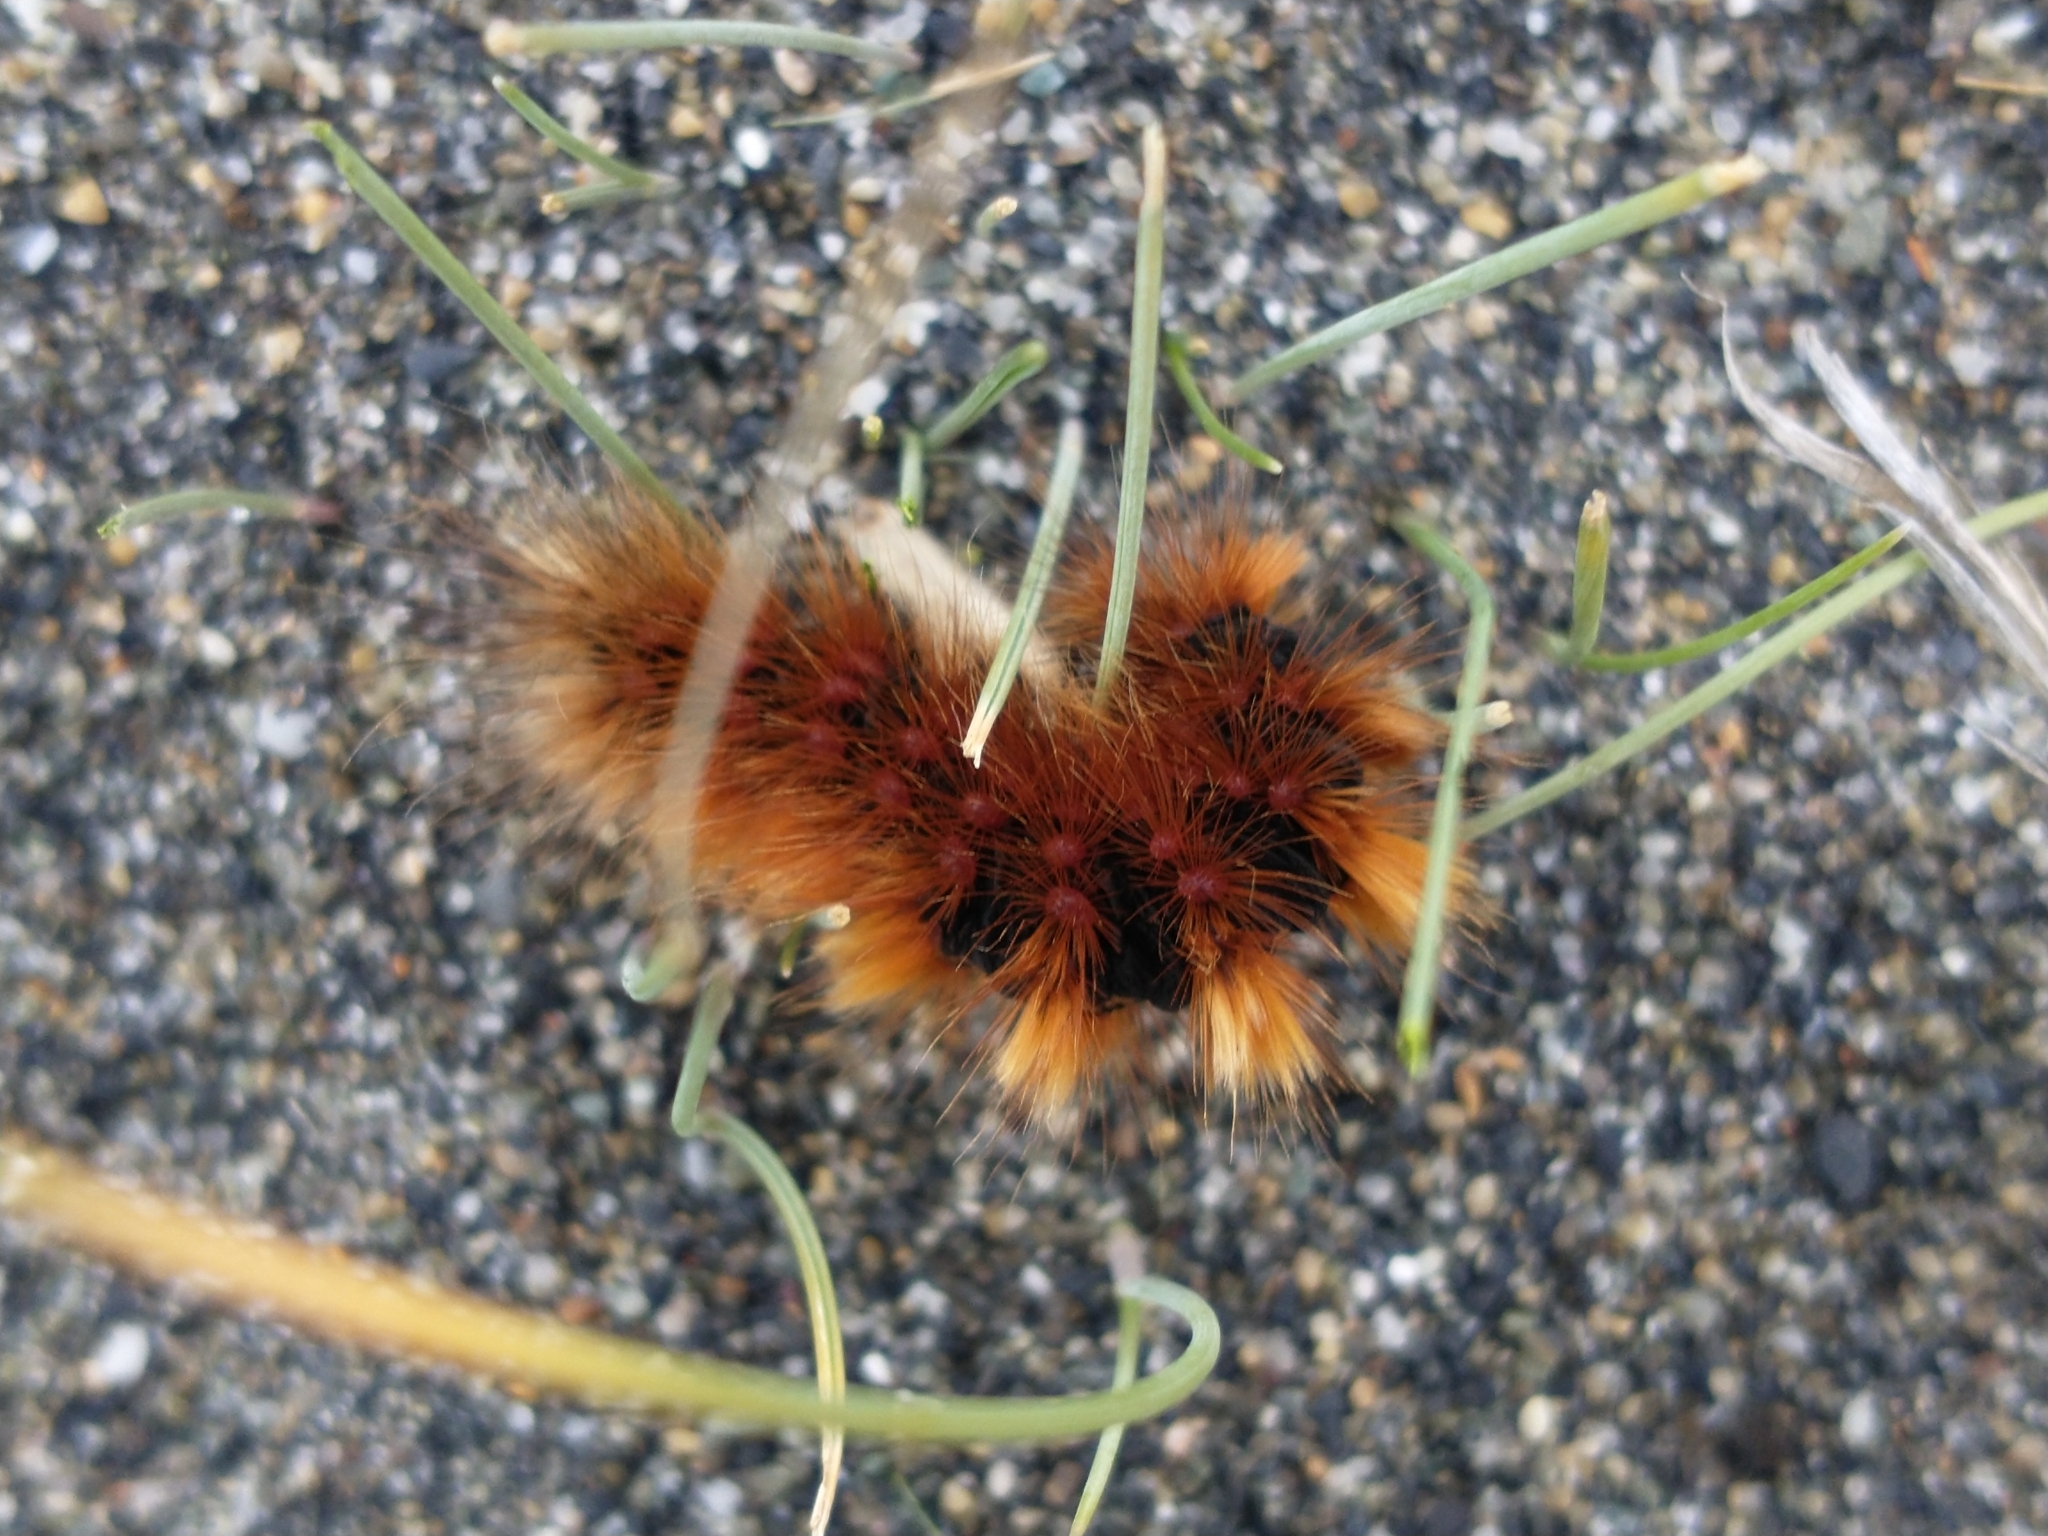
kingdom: Animalia
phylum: Arthropoda
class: Insecta
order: Lepidoptera
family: Erebidae
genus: Paracles
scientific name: Paracles severa
